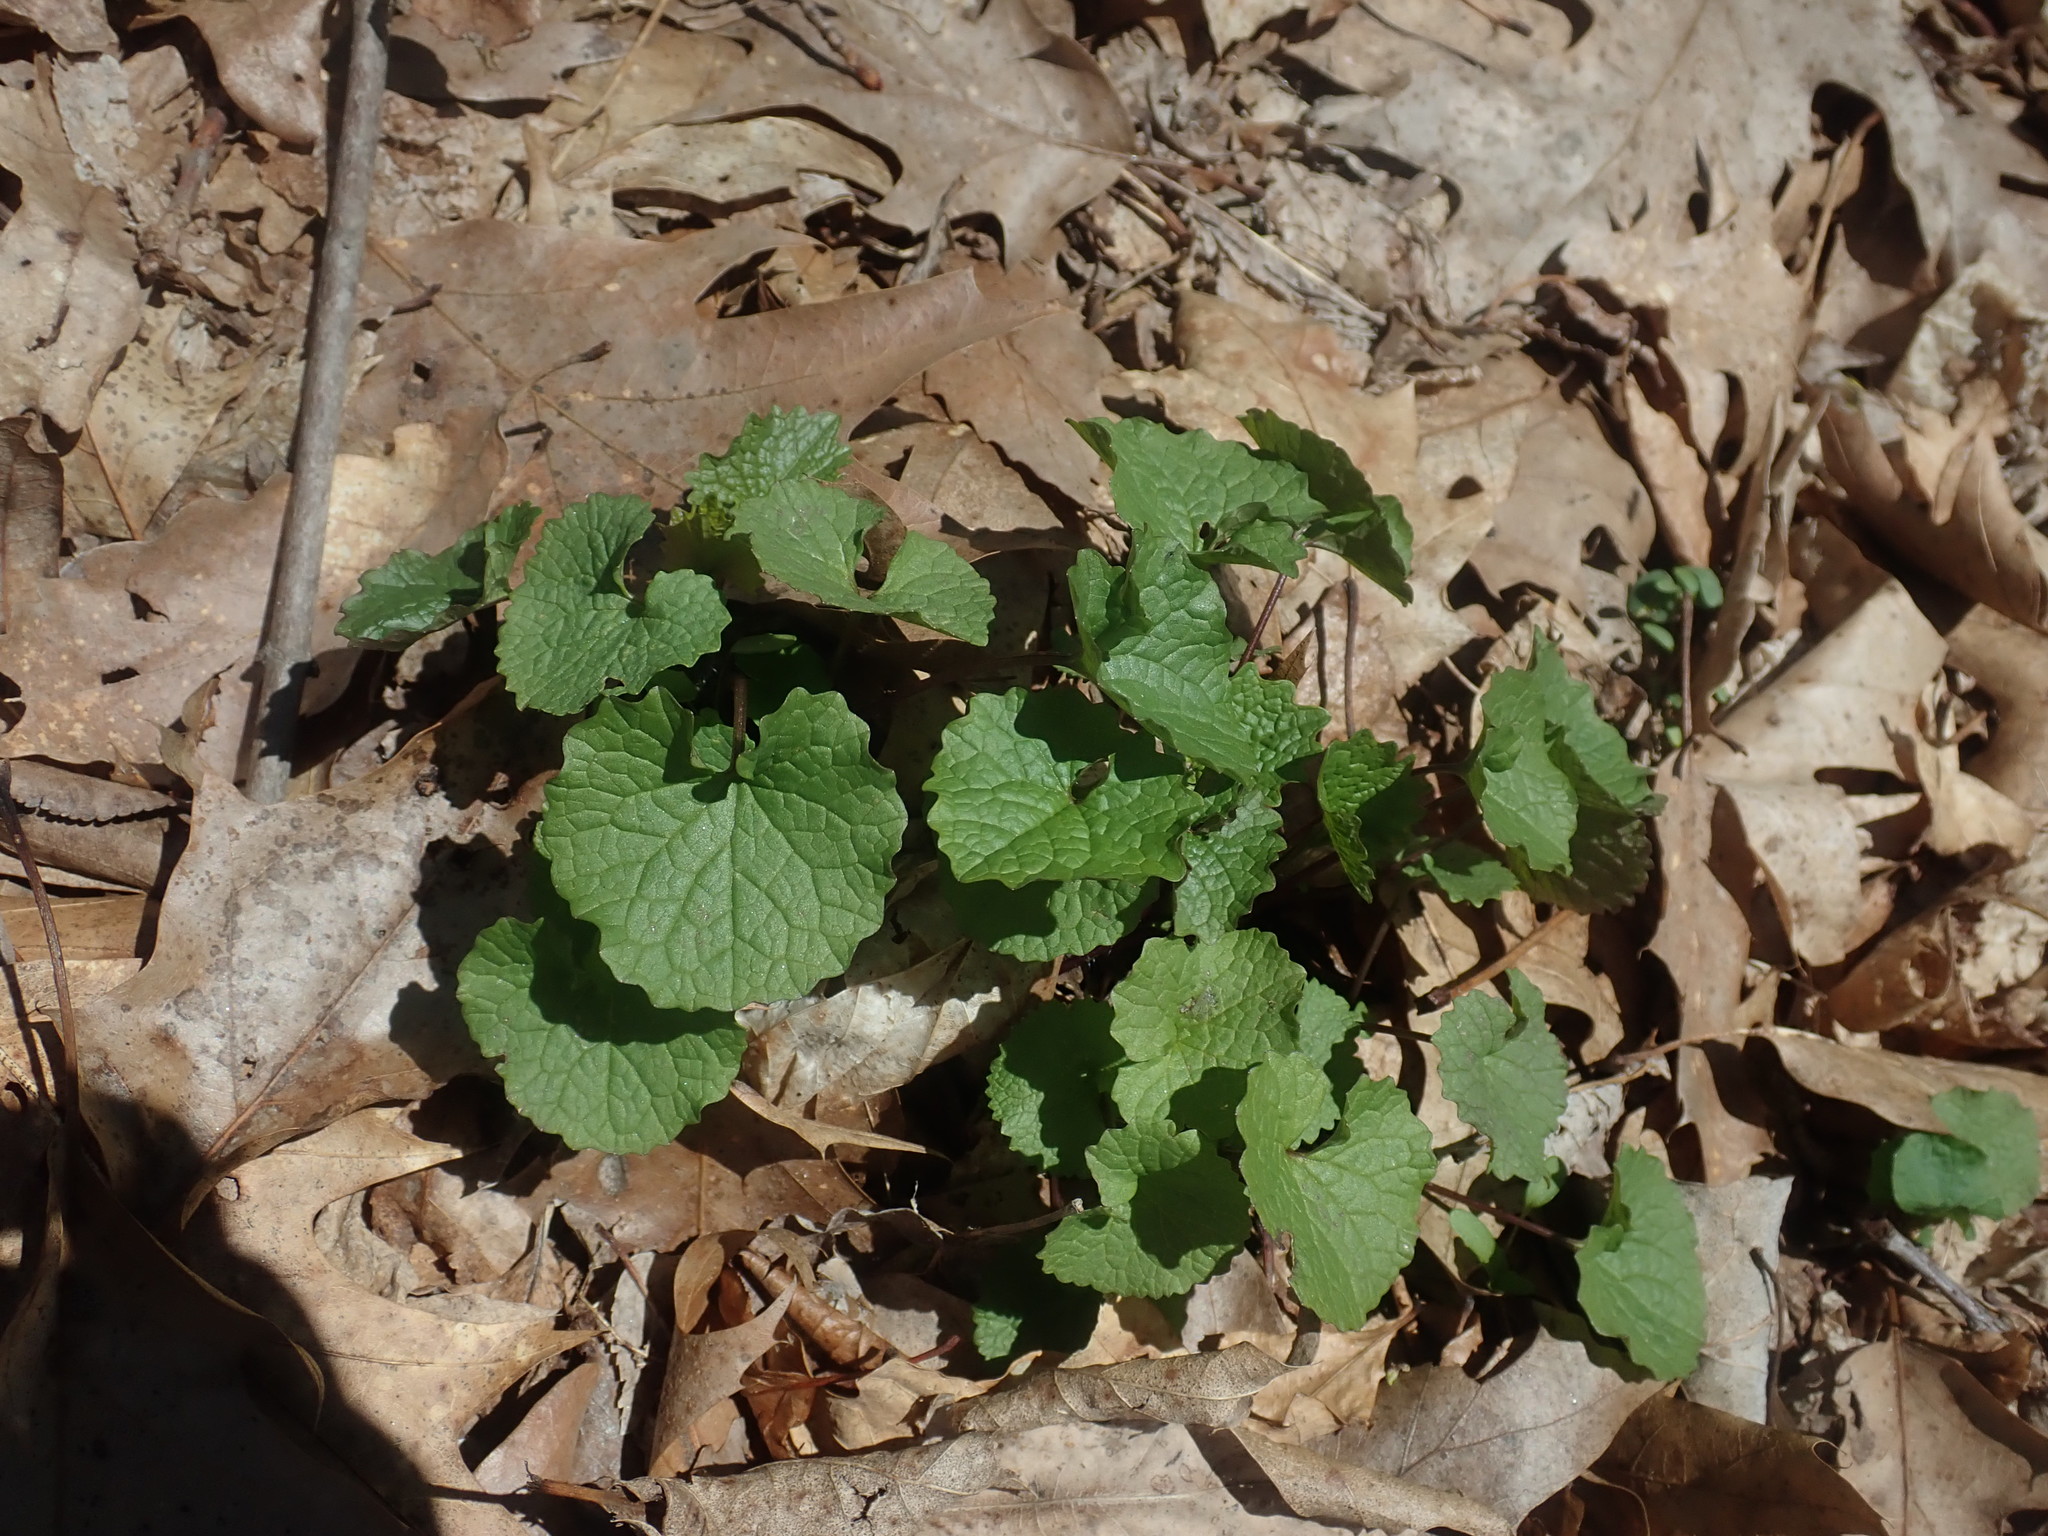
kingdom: Plantae
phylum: Tracheophyta
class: Magnoliopsida
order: Brassicales
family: Brassicaceae
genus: Alliaria
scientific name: Alliaria petiolata
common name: Garlic mustard
